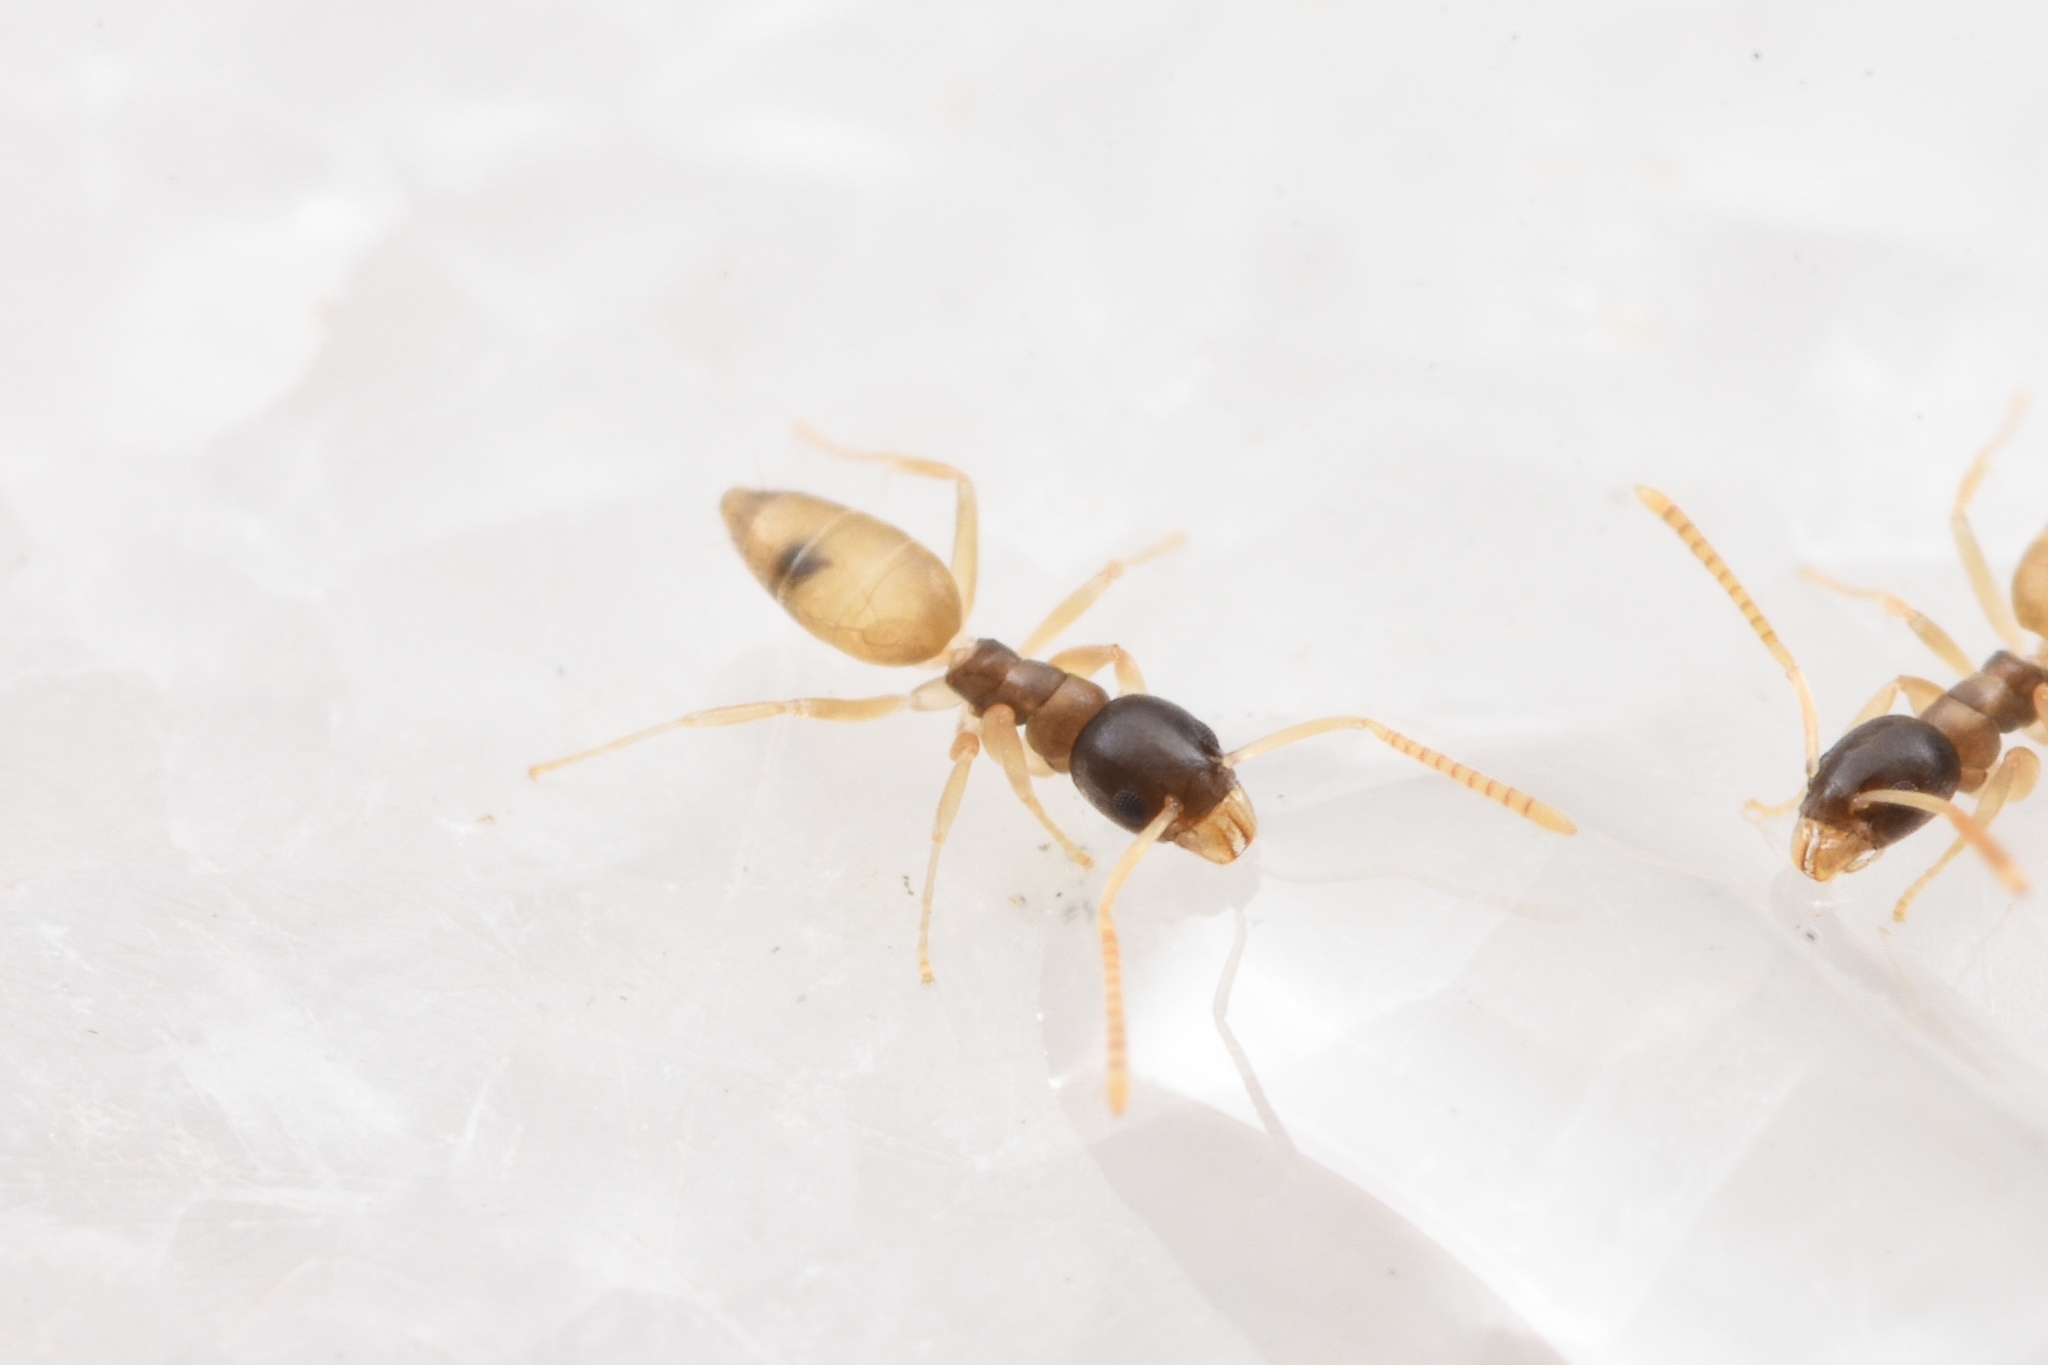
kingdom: Animalia
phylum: Arthropoda
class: Insecta
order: Hymenoptera
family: Formicidae
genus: Tapinoma
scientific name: Tapinoma melanocephalum
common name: Ghost ant
